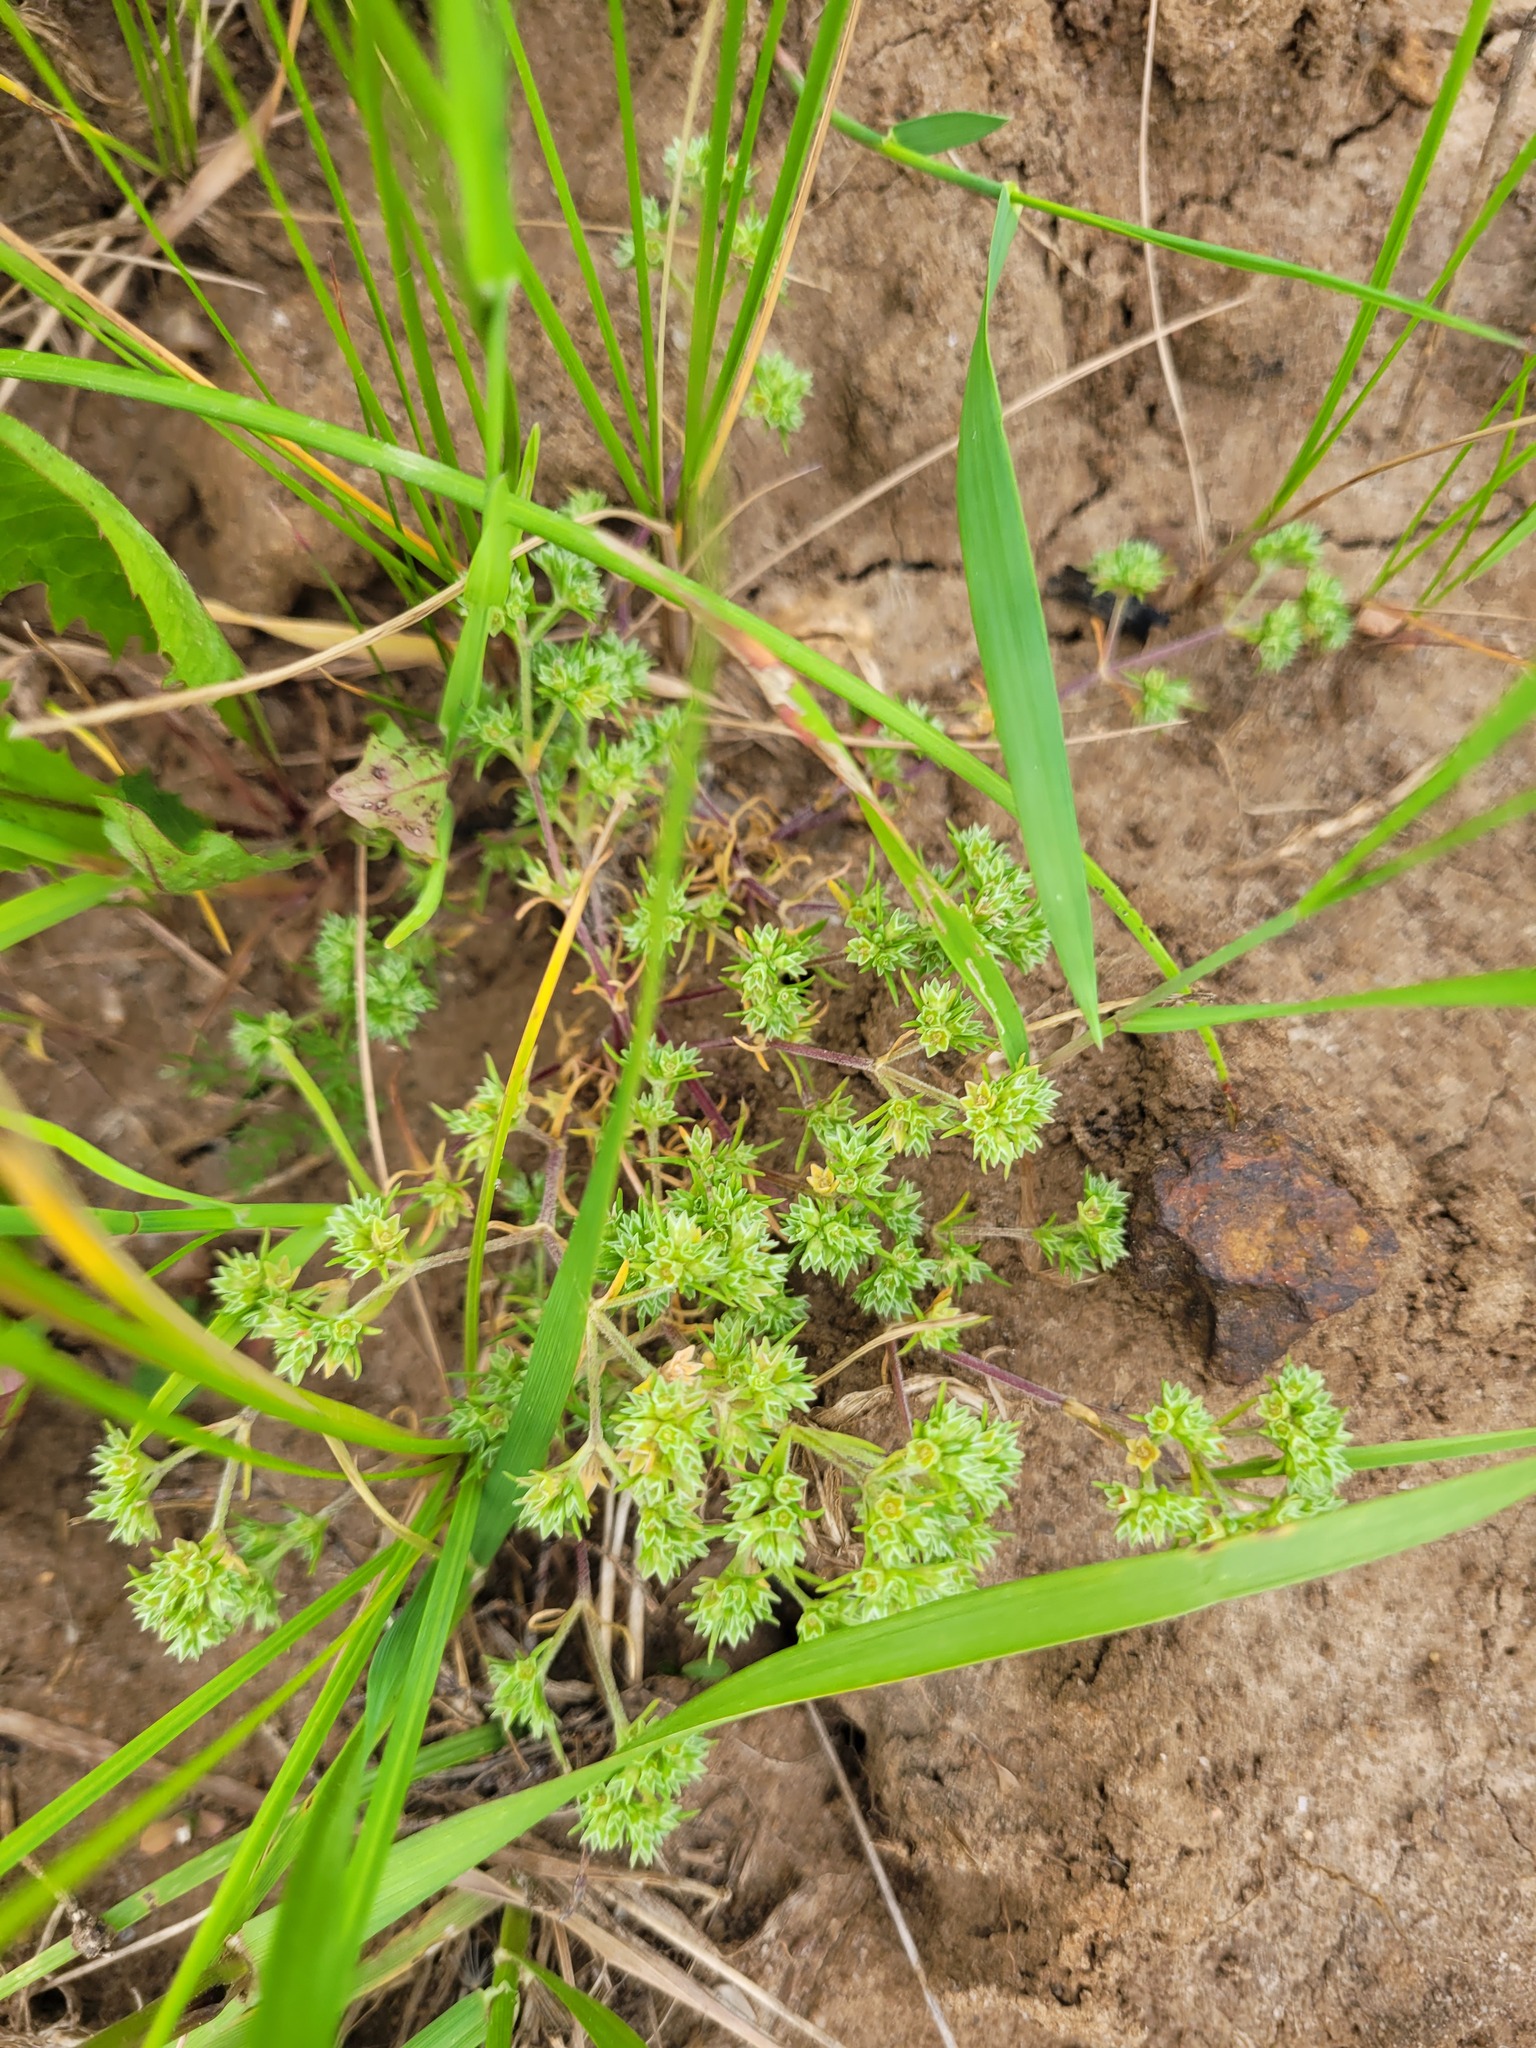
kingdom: Plantae
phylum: Tracheophyta
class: Magnoliopsida
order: Caryophyllales
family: Caryophyllaceae
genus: Scleranthus
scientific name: Scleranthus annuus
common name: Annual knawel
